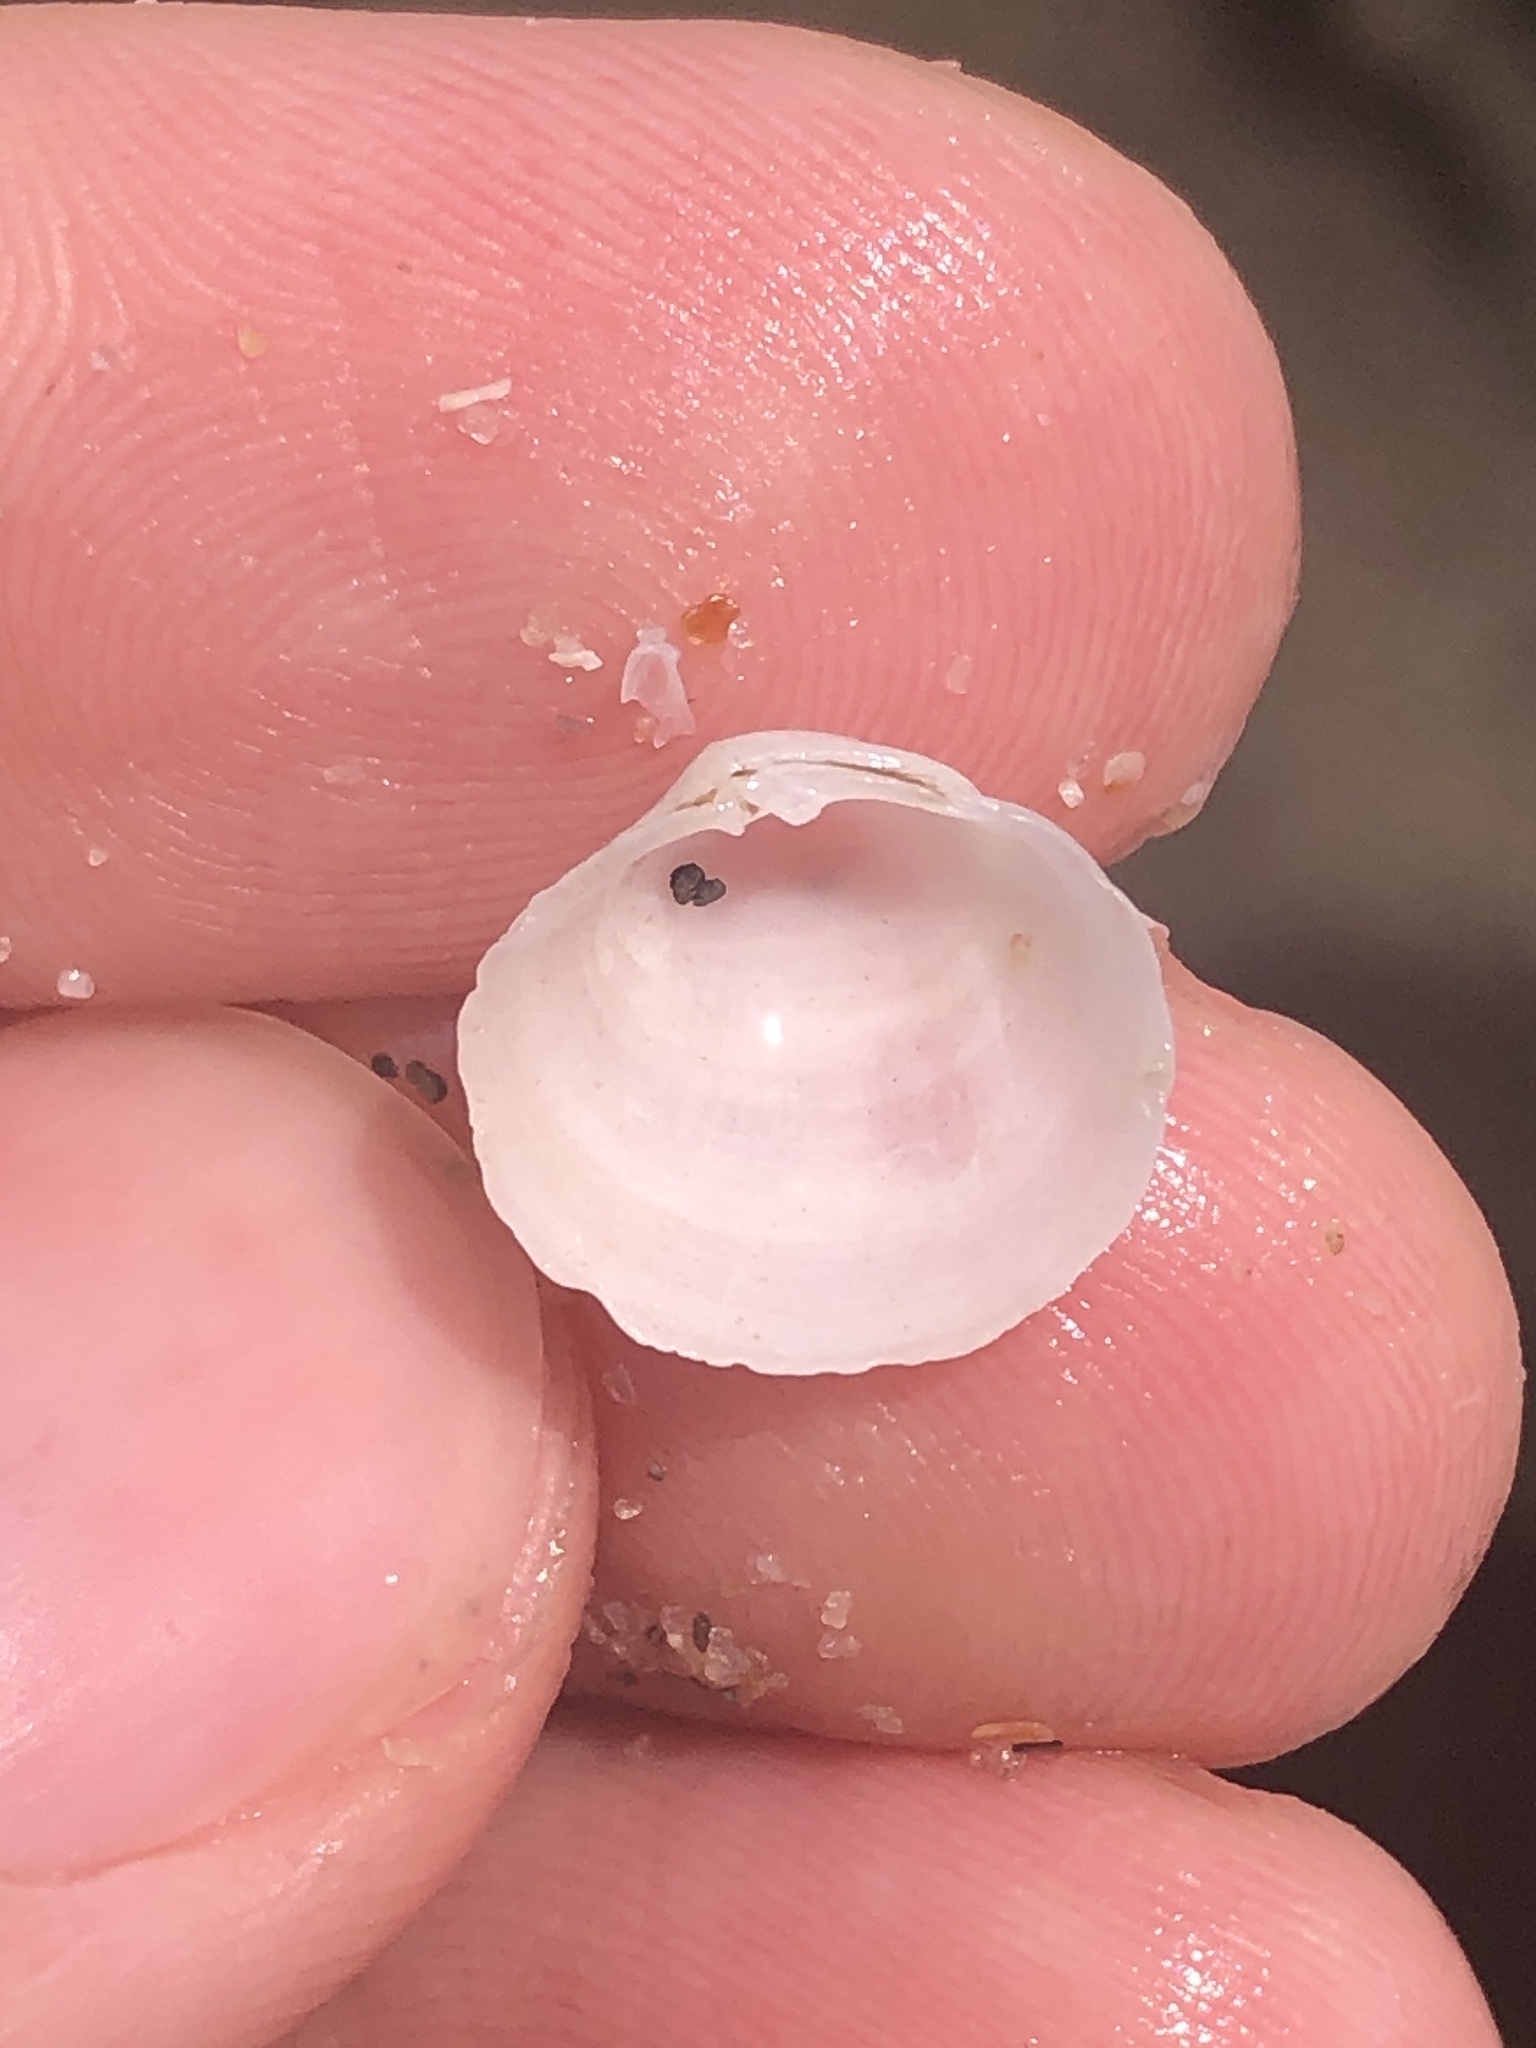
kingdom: Animalia
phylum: Mollusca
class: Bivalvia
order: Venerida
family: Ungulinidae
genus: Zemysina
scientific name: Zemysina orbella
